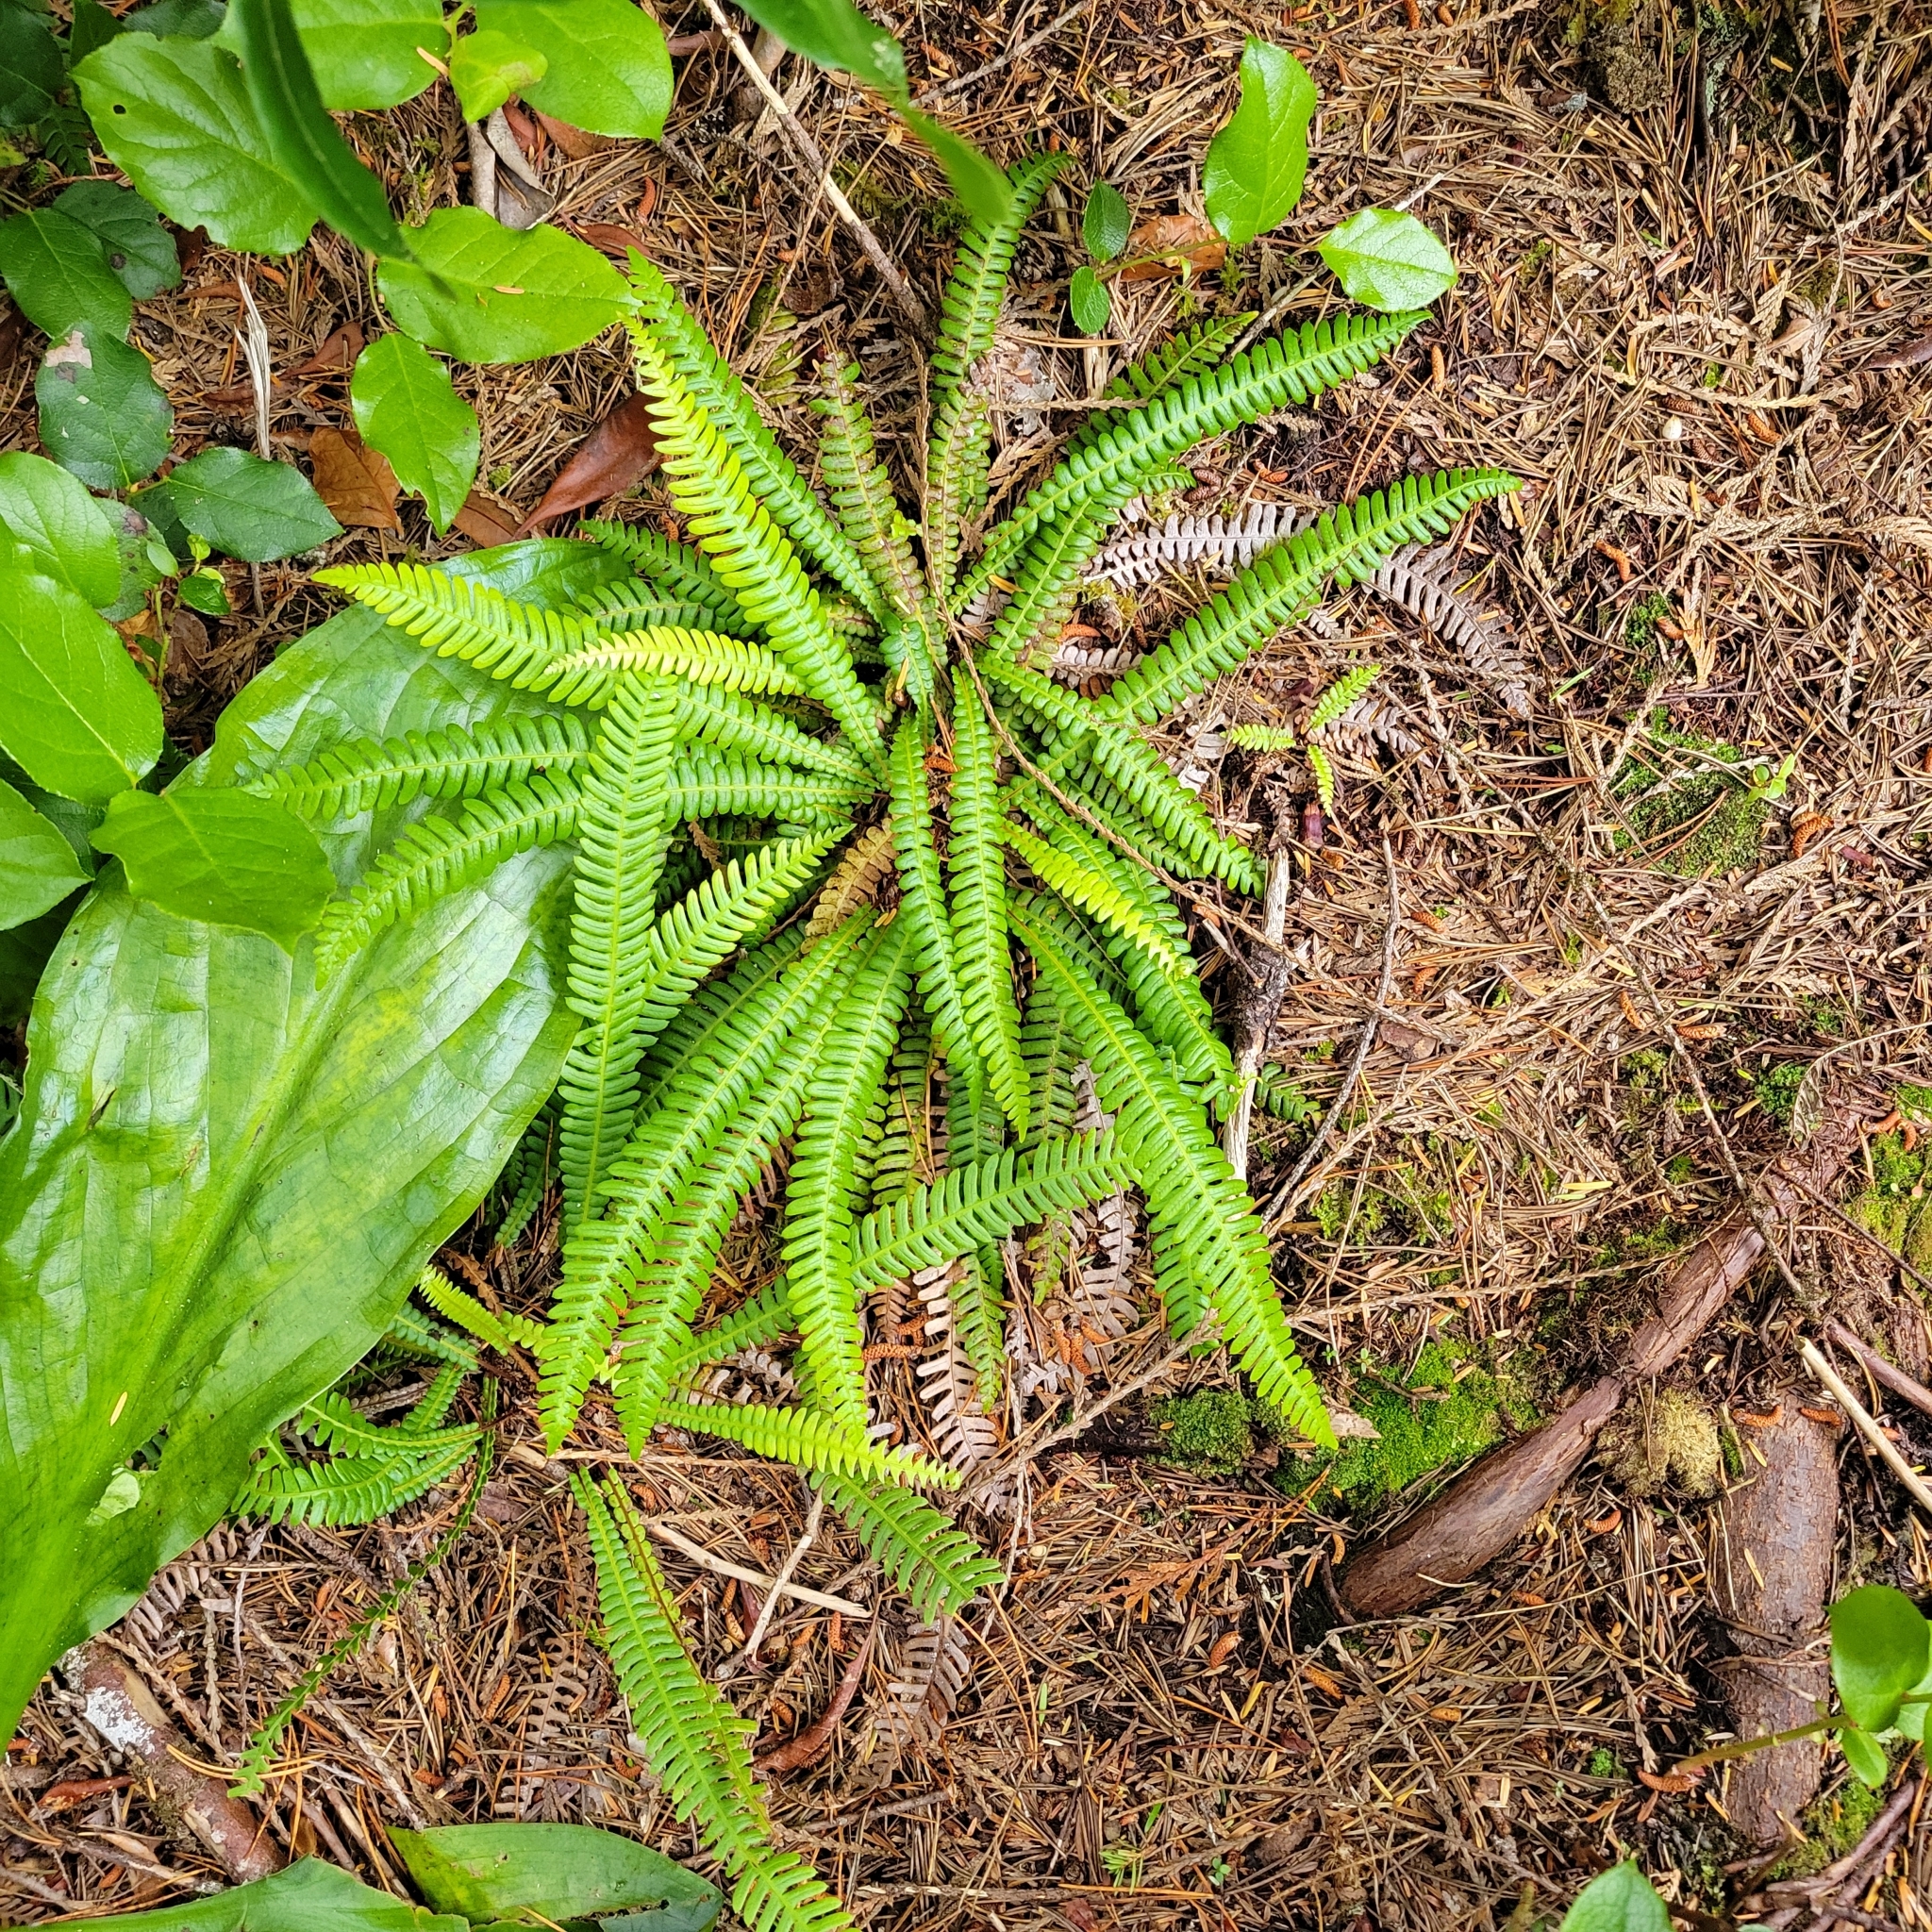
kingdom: Plantae
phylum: Tracheophyta
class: Polypodiopsida
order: Polypodiales
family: Blechnaceae
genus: Struthiopteris
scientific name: Struthiopteris spicant
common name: Deer fern
